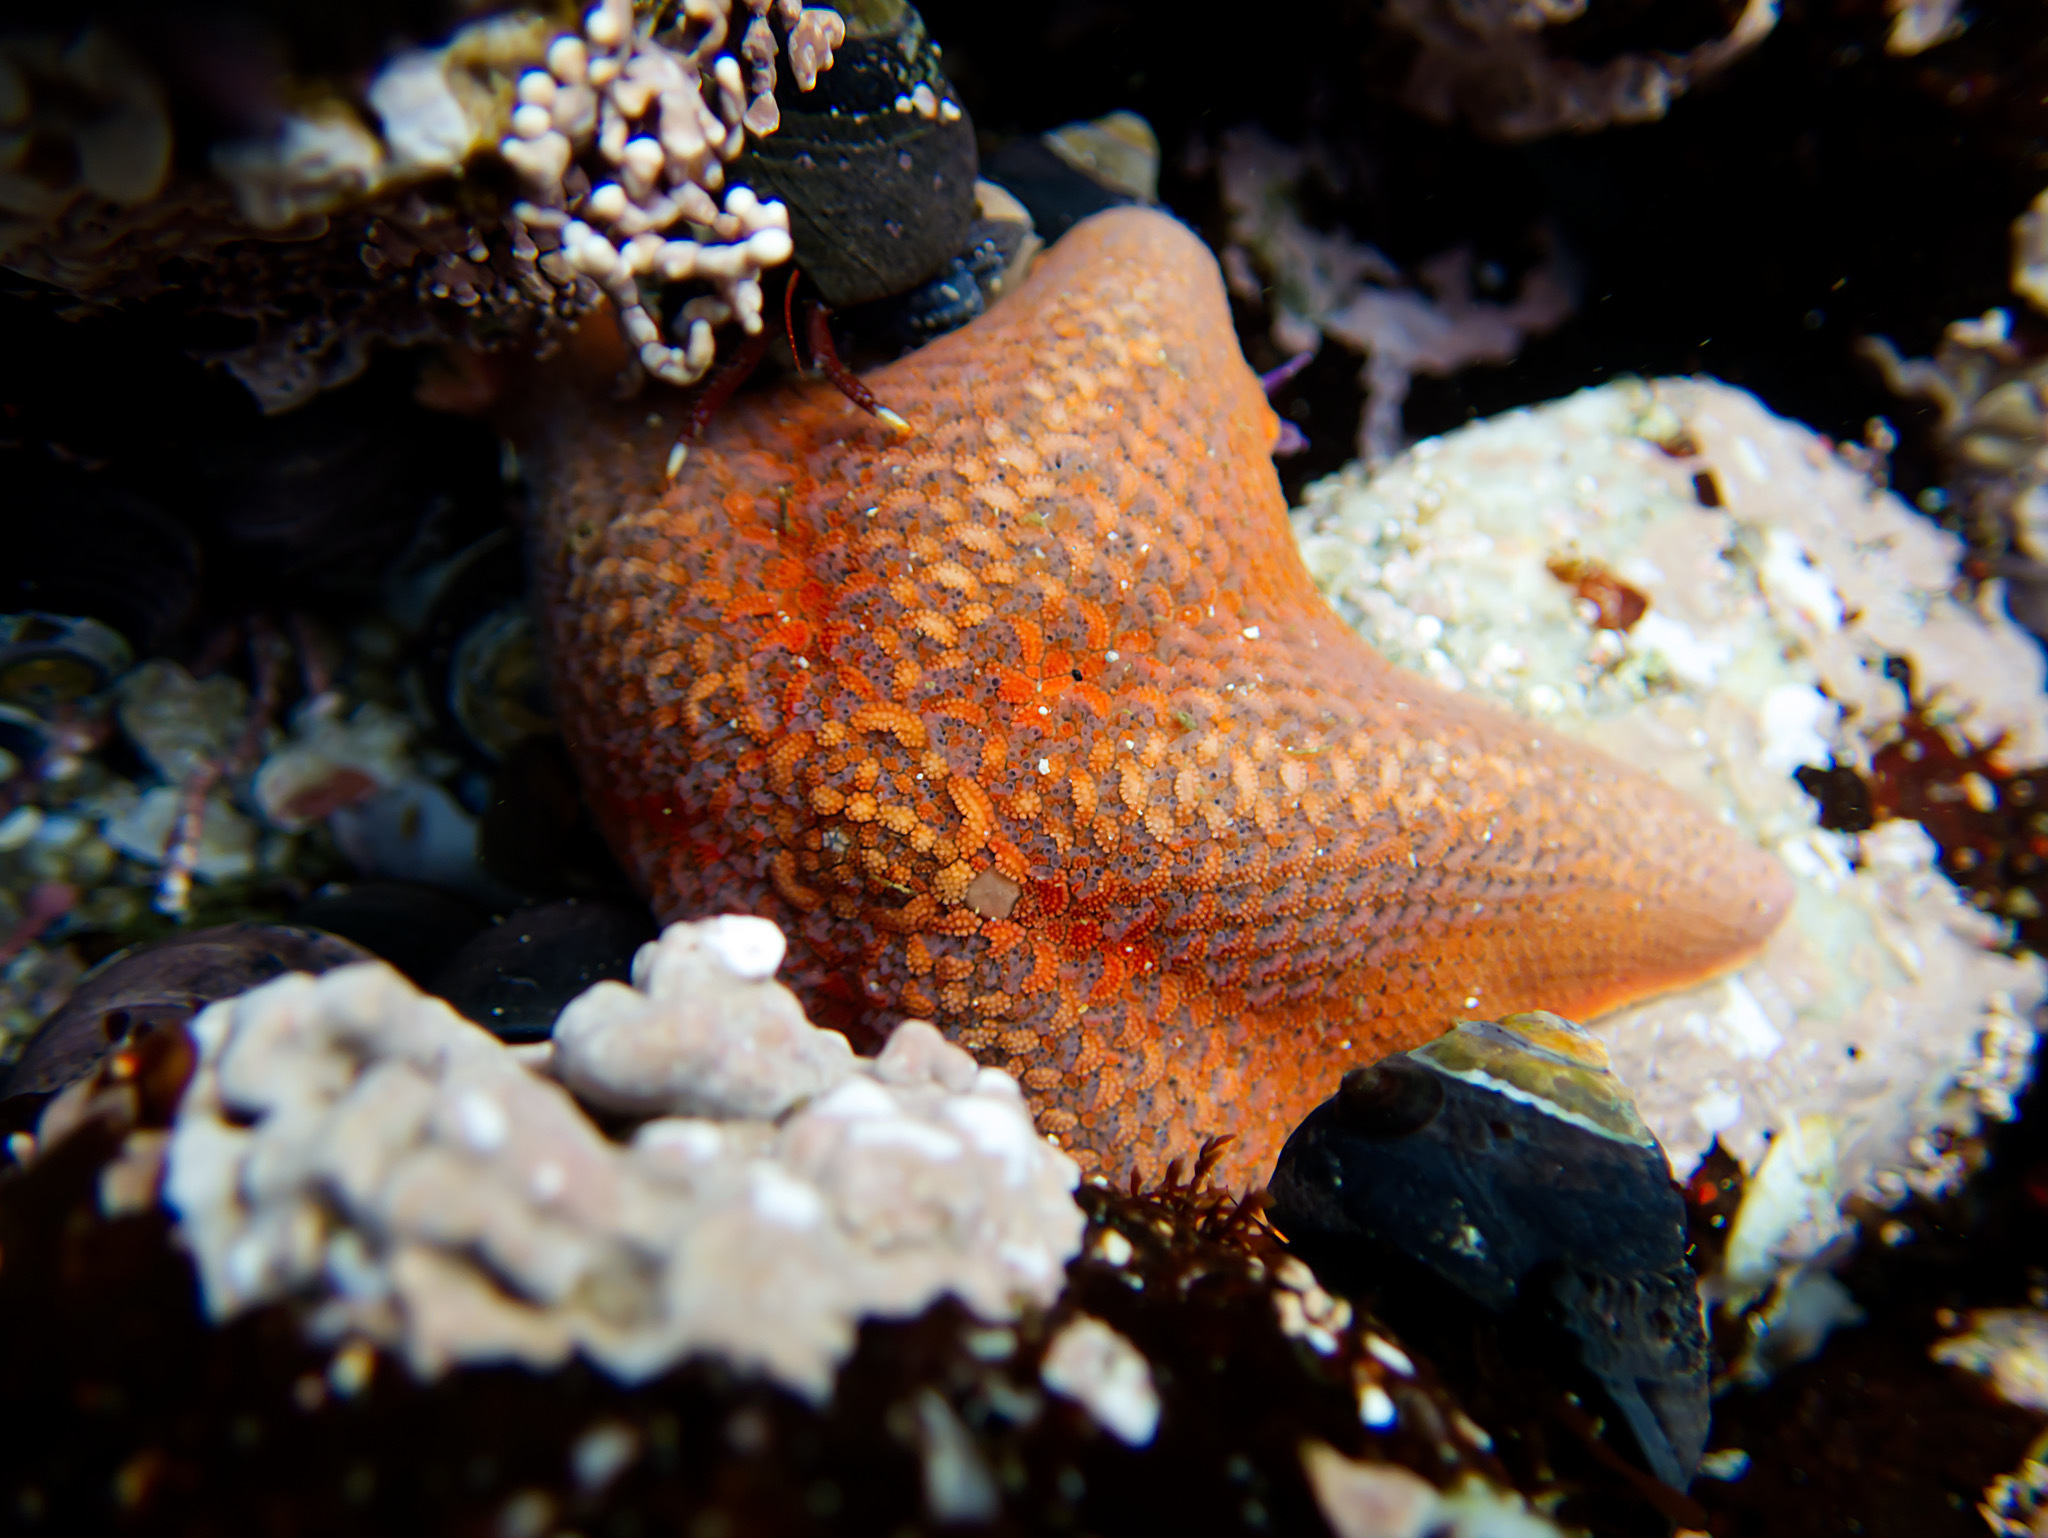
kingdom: Animalia
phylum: Echinodermata
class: Asteroidea
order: Valvatida
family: Asterinidae
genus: Patiria
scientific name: Patiria miniata
